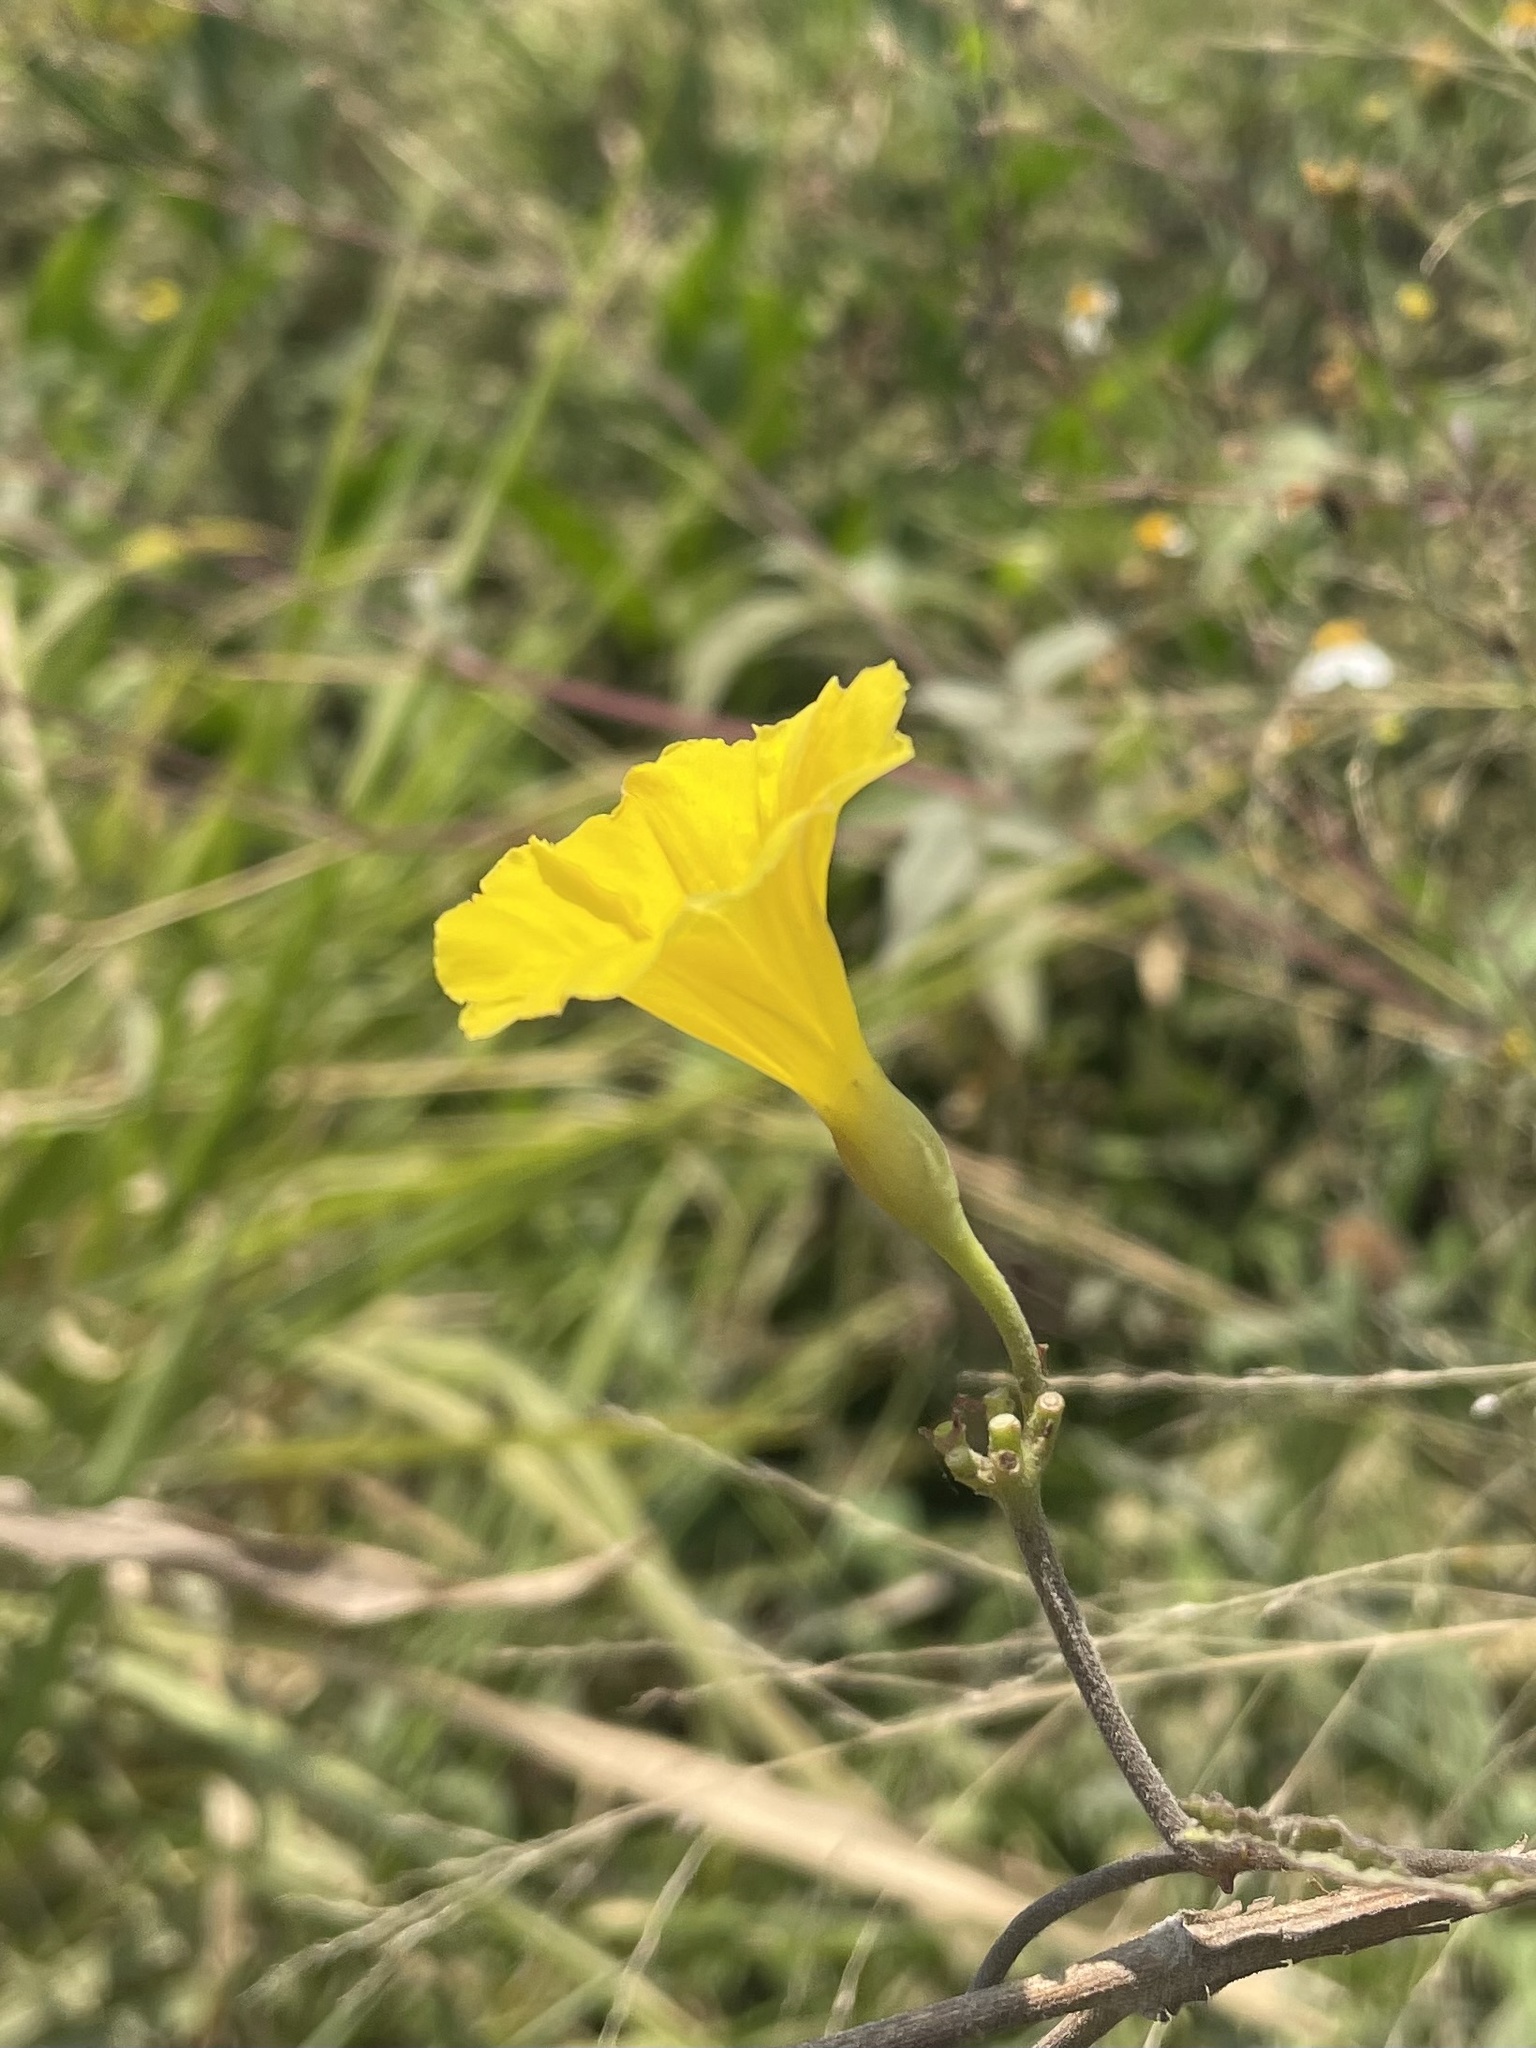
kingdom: Plantae
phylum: Tracheophyta
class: Magnoliopsida
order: Solanales
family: Convolvulaceae
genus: Camonea
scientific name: Camonea umbellata
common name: Hogvine
